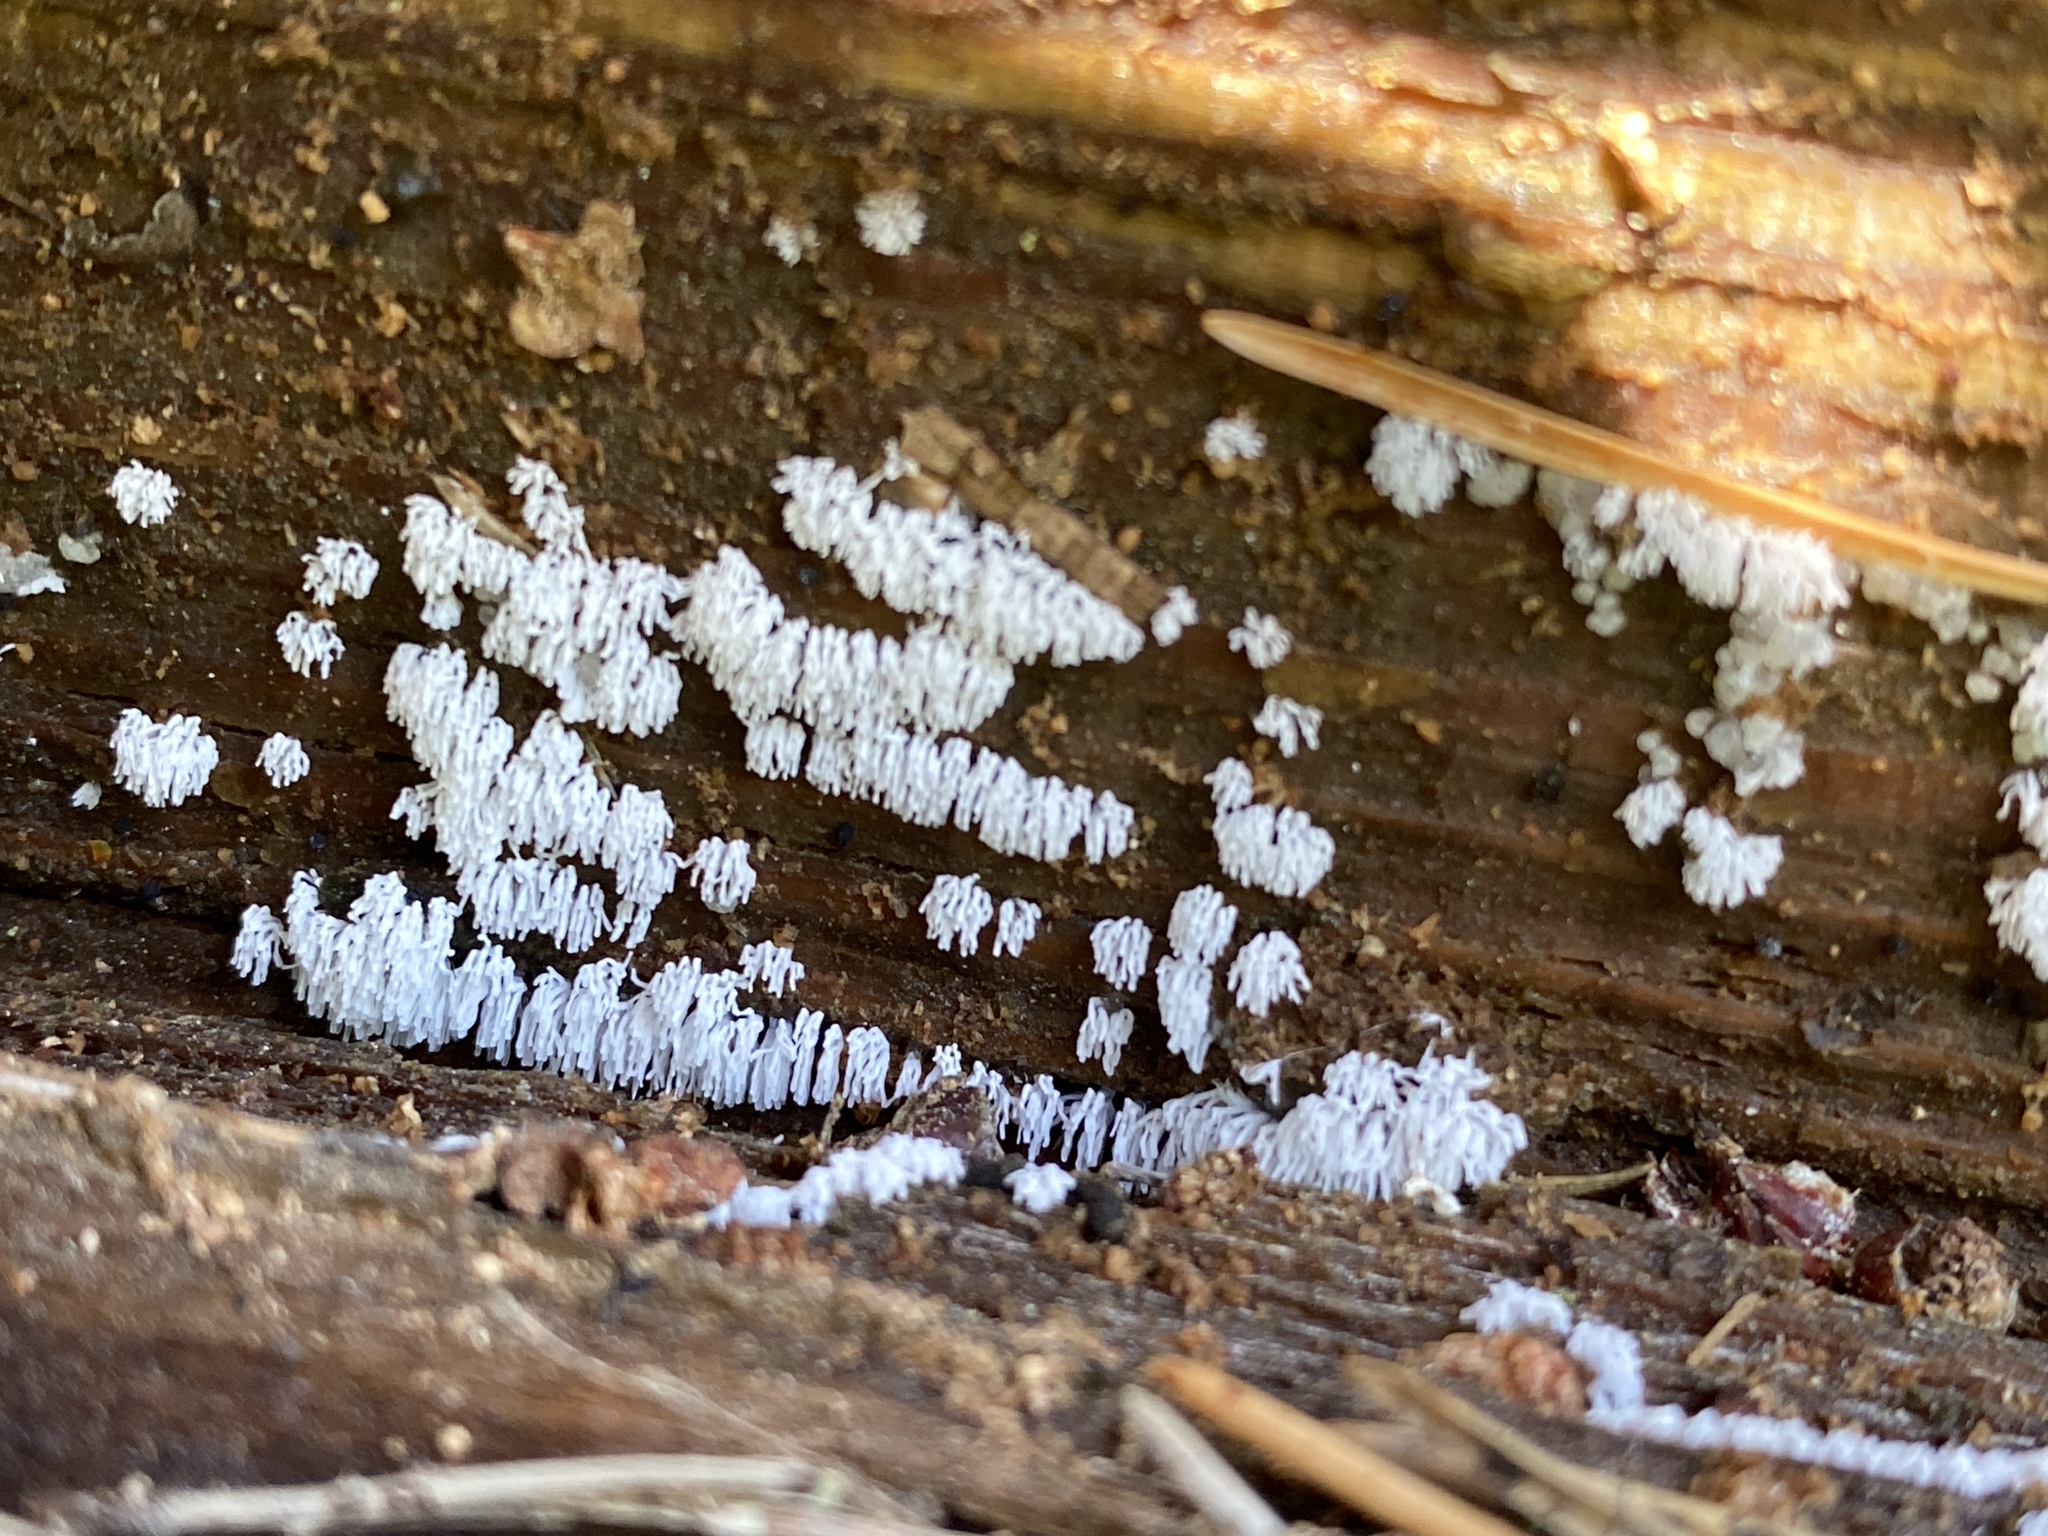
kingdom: Protozoa
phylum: Mycetozoa
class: Protosteliomycetes
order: Ceratiomyxales
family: Ceratiomyxaceae
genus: Ceratiomyxa
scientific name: Ceratiomyxa fruticulosa
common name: Honeycomb coral slime mold
